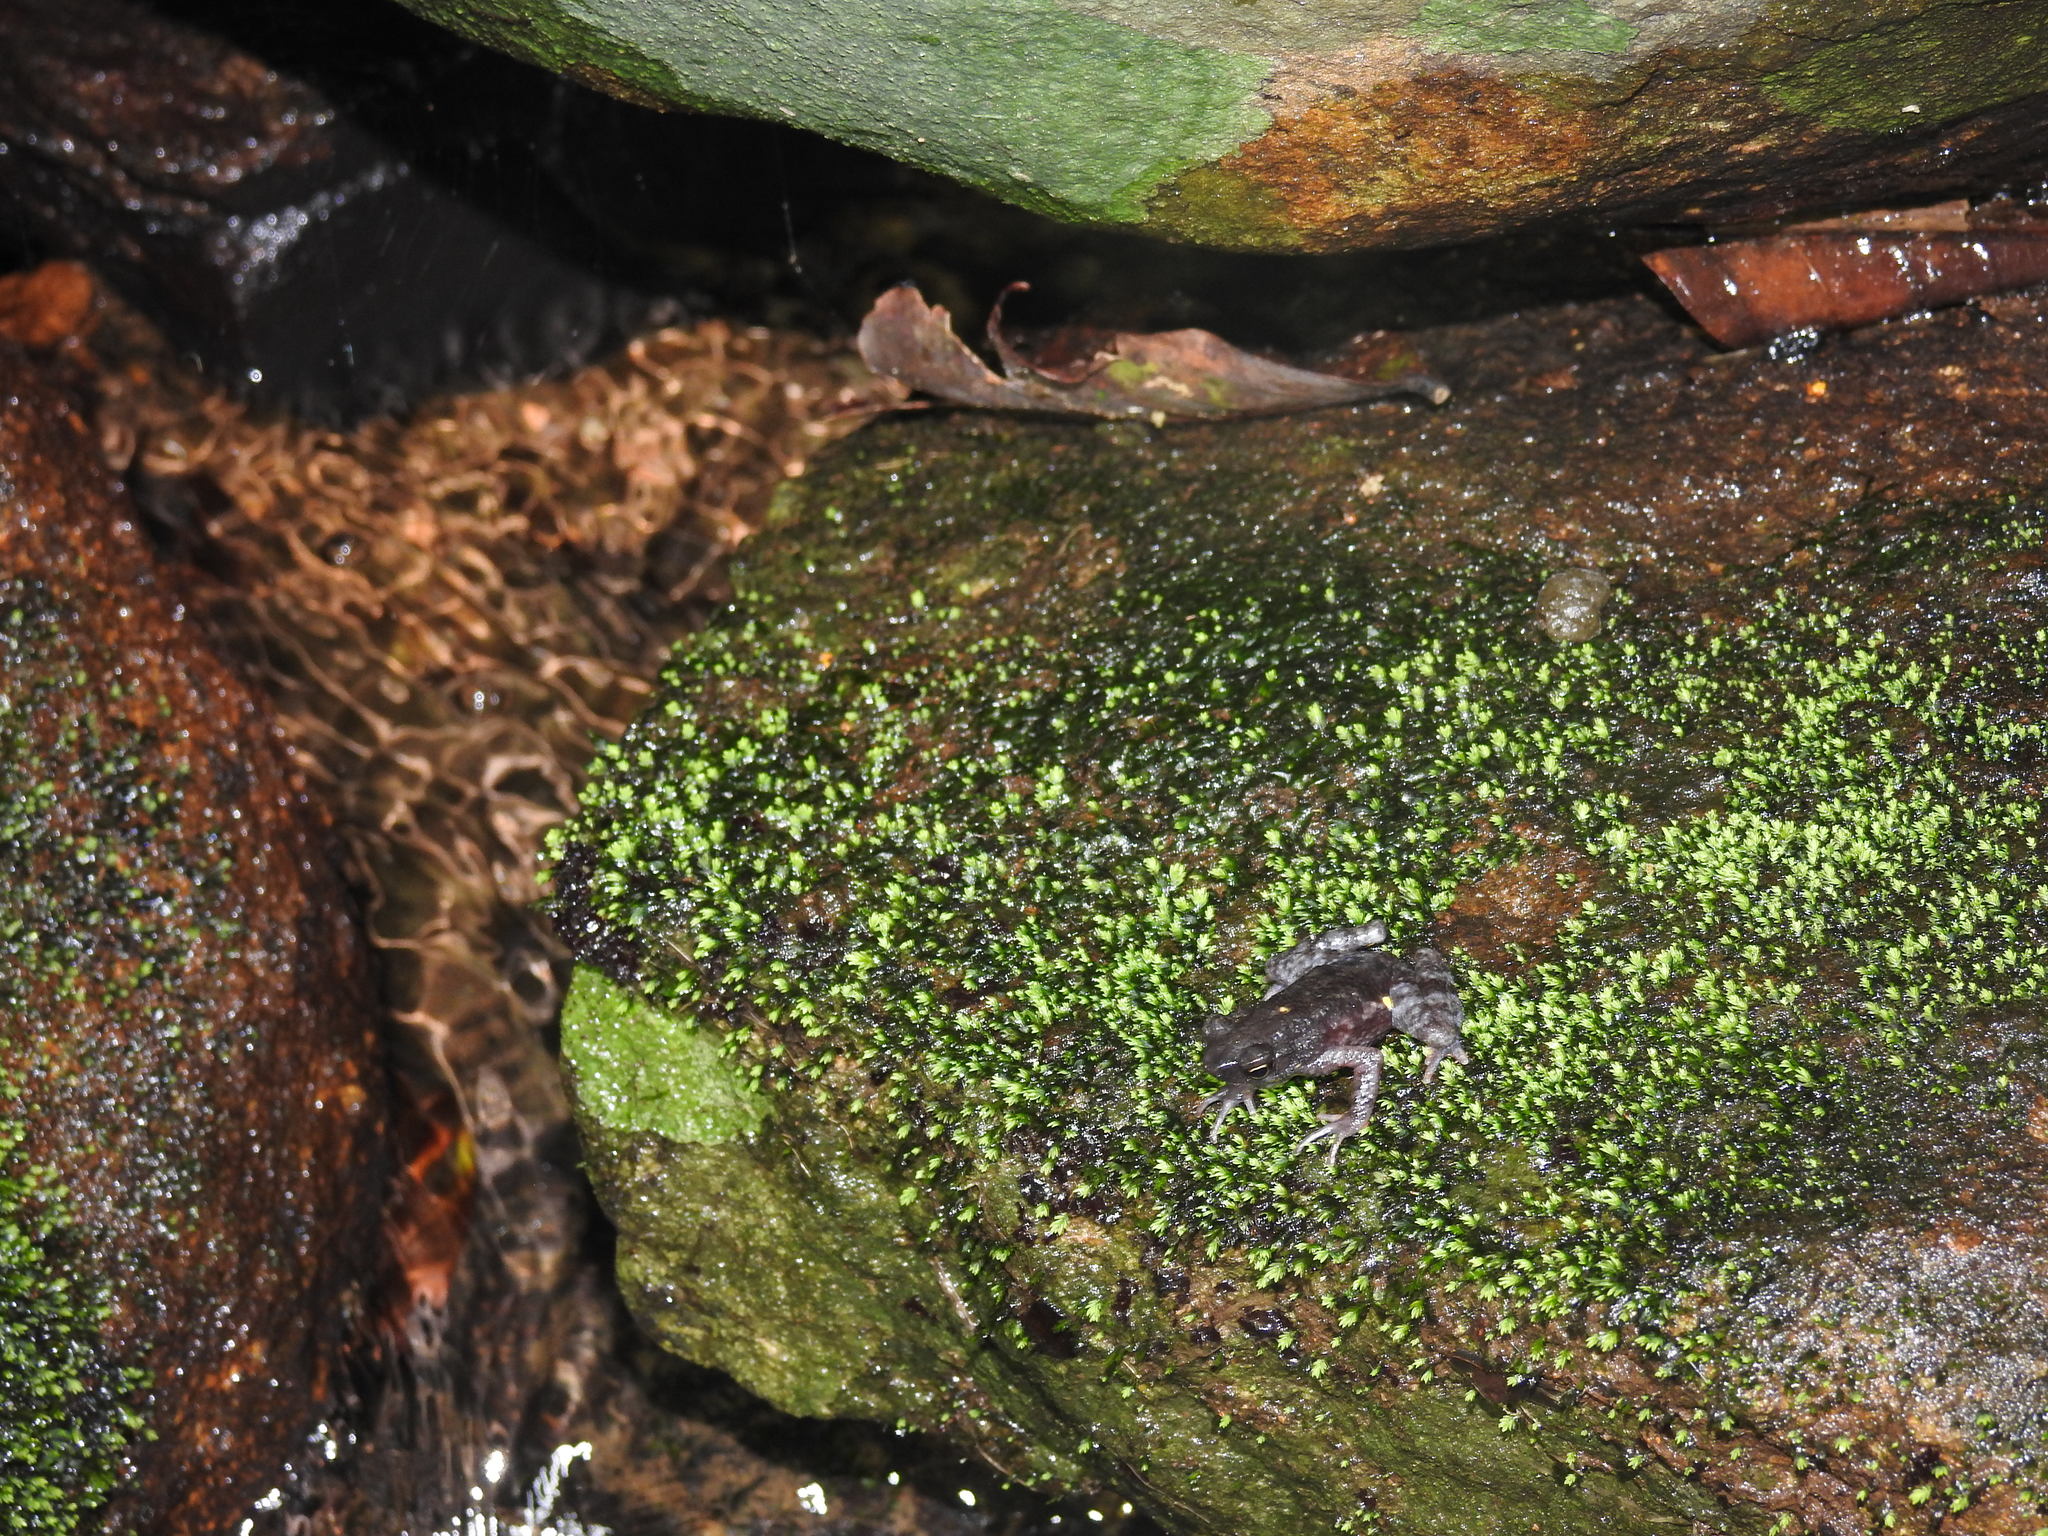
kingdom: Animalia
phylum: Chordata
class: Amphibia
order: Anura
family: Bufonidae
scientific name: Bufonidae
